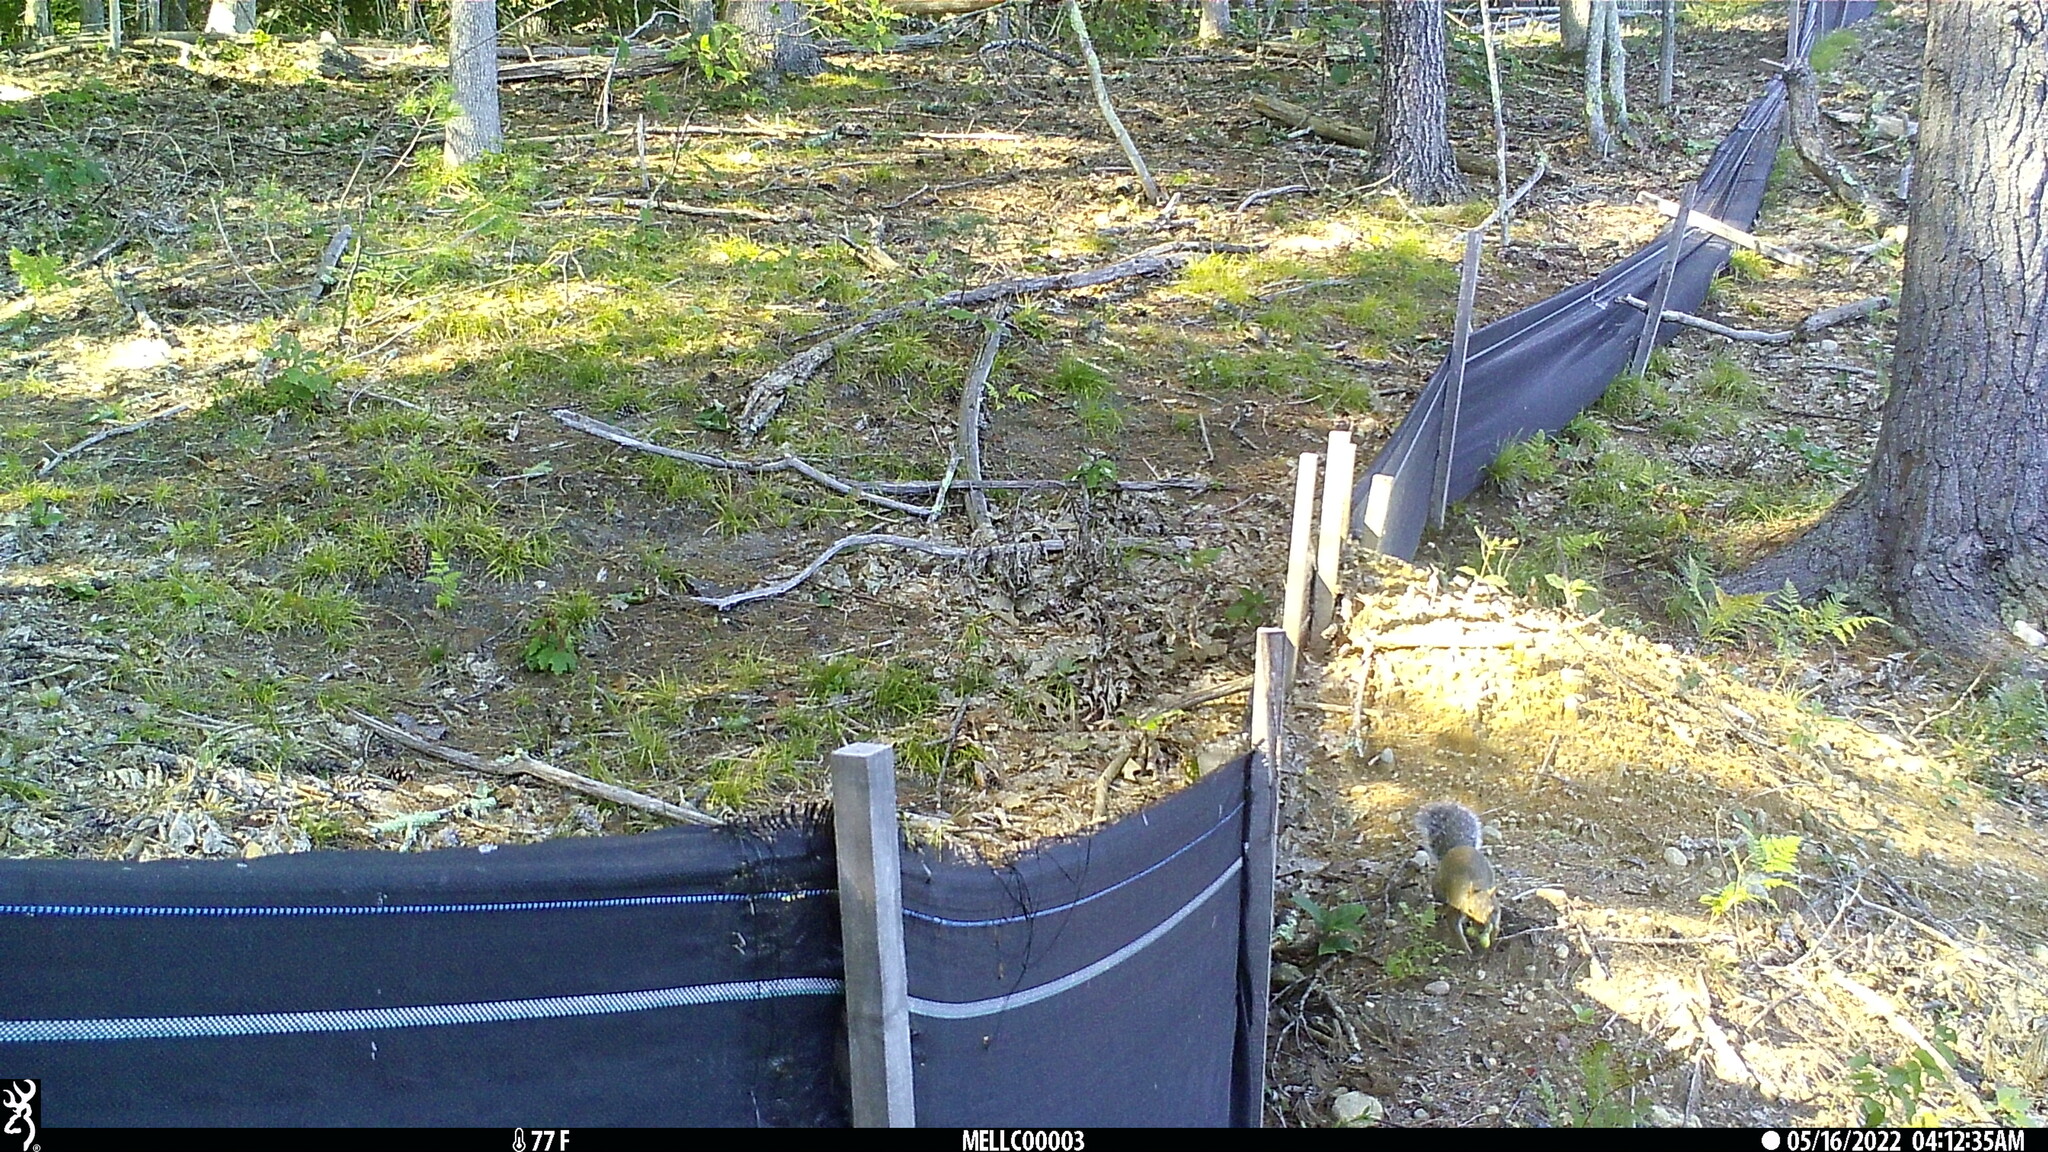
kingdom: Animalia
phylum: Chordata
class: Mammalia
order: Rodentia
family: Sciuridae
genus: Sciurus
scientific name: Sciurus carolinensis
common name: Eastern gray squirrel
